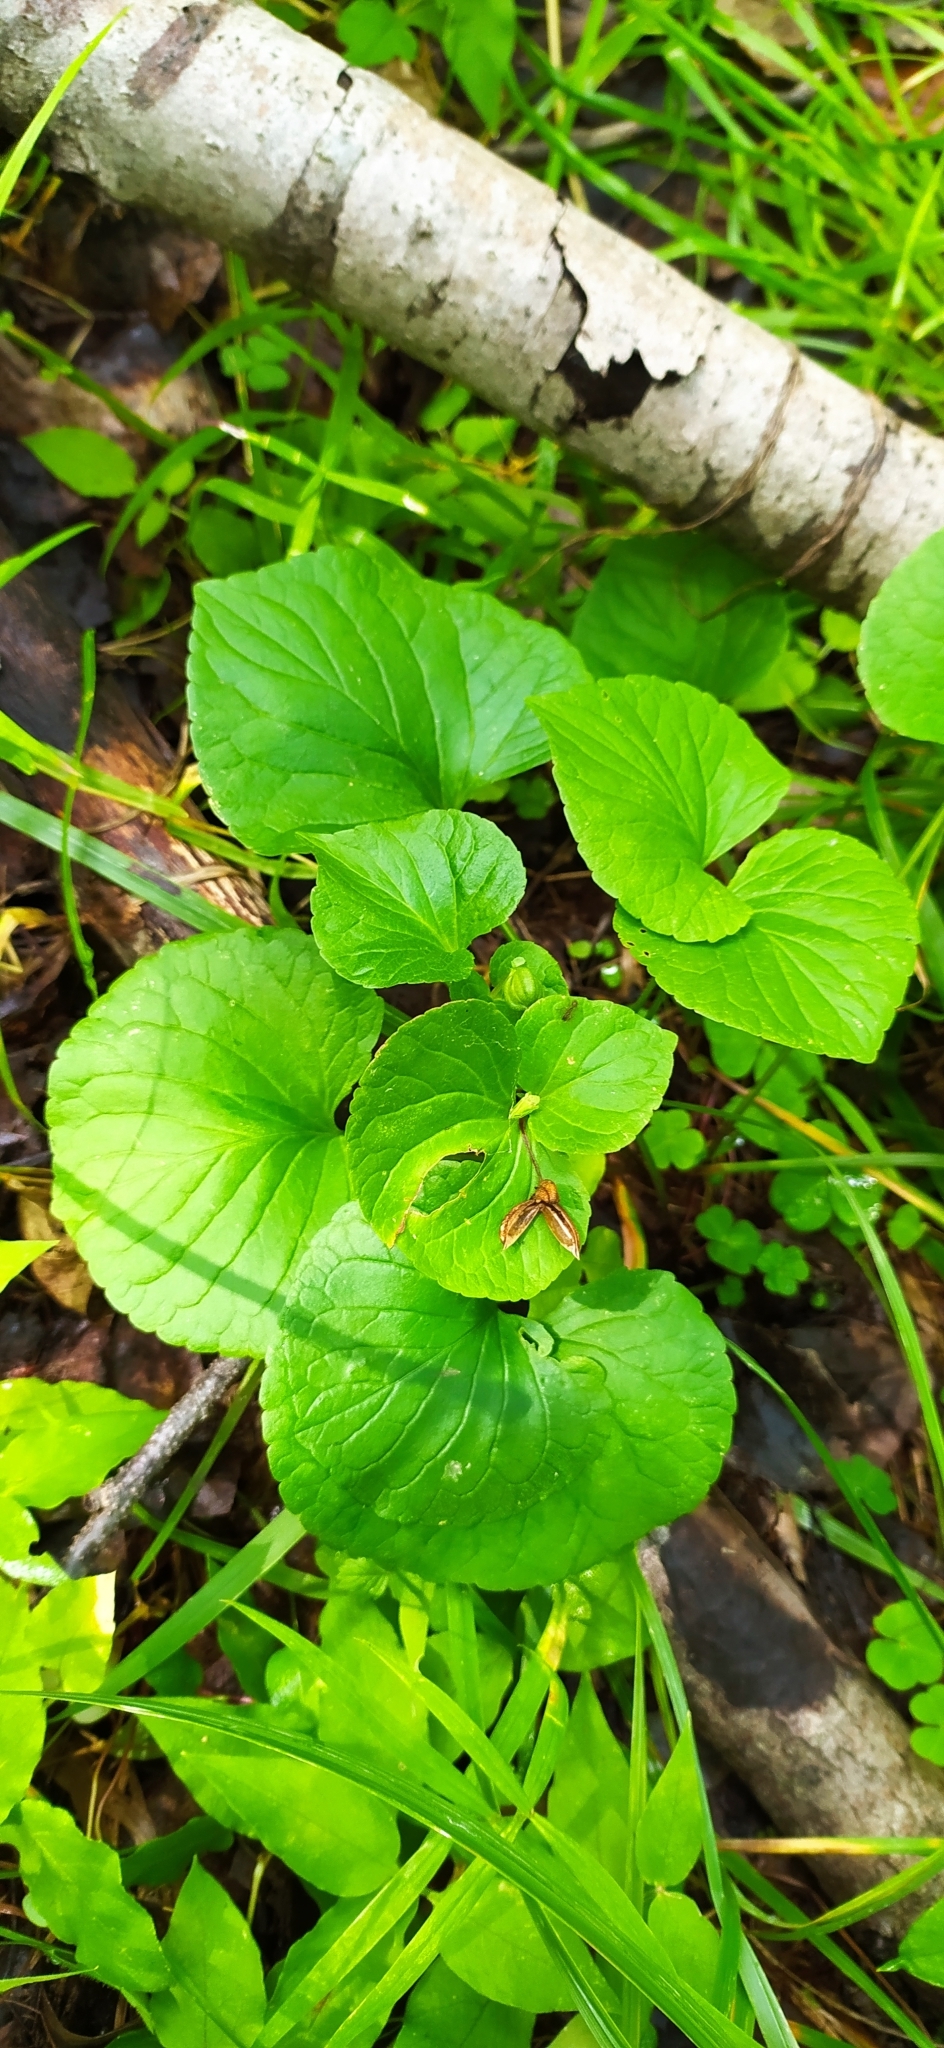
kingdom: Plantae
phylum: Tracheophyta
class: Magnoliopsida
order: Malpighiales
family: Violaceae
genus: Viola
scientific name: Viola mirabilis
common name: Wonder violet
